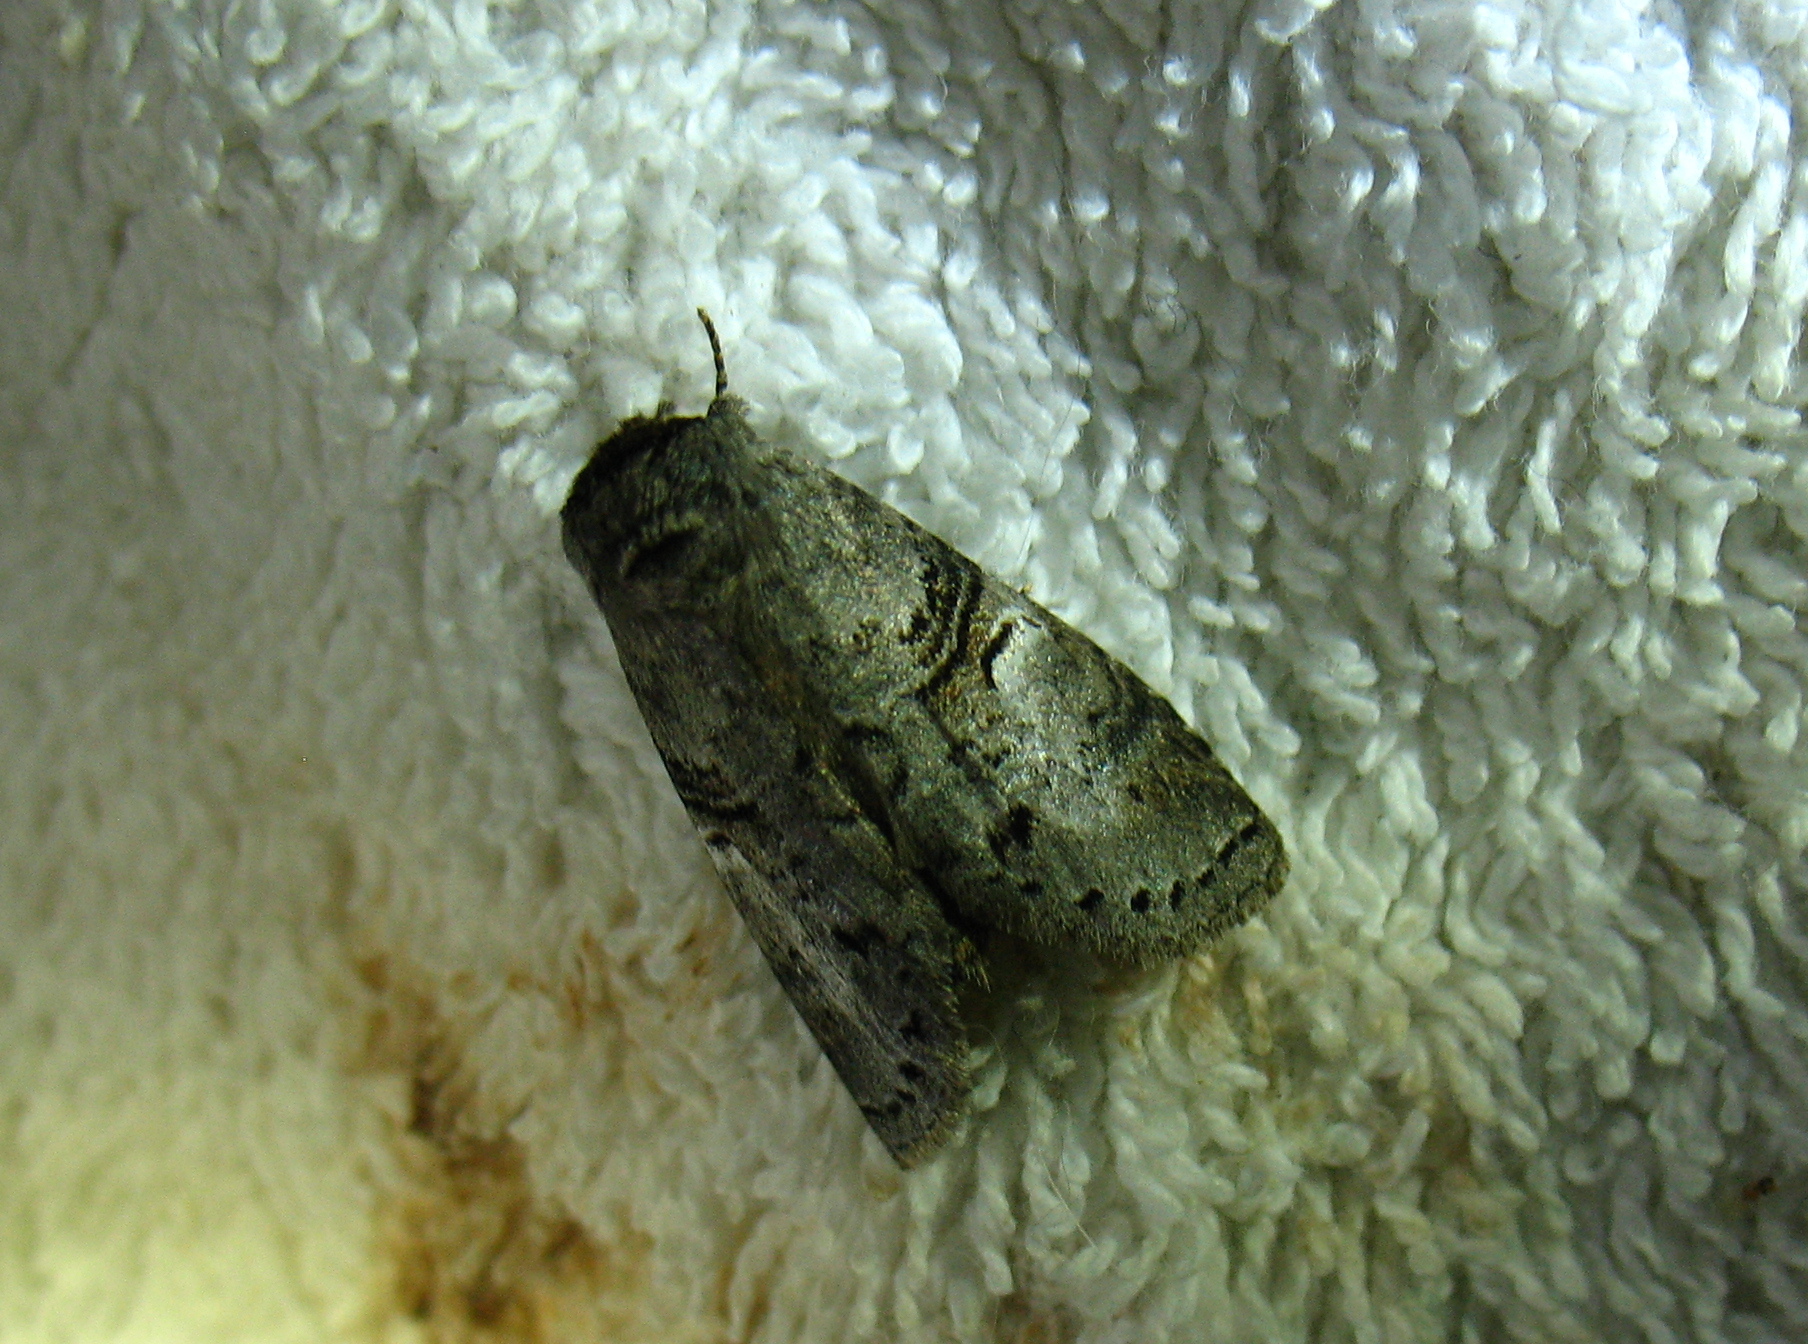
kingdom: Animalia
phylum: Arthropoda
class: Insecta
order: Lepidoptera
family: Notodontidae
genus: Ellida
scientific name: Ellida caniplaga
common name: Linden prominent
